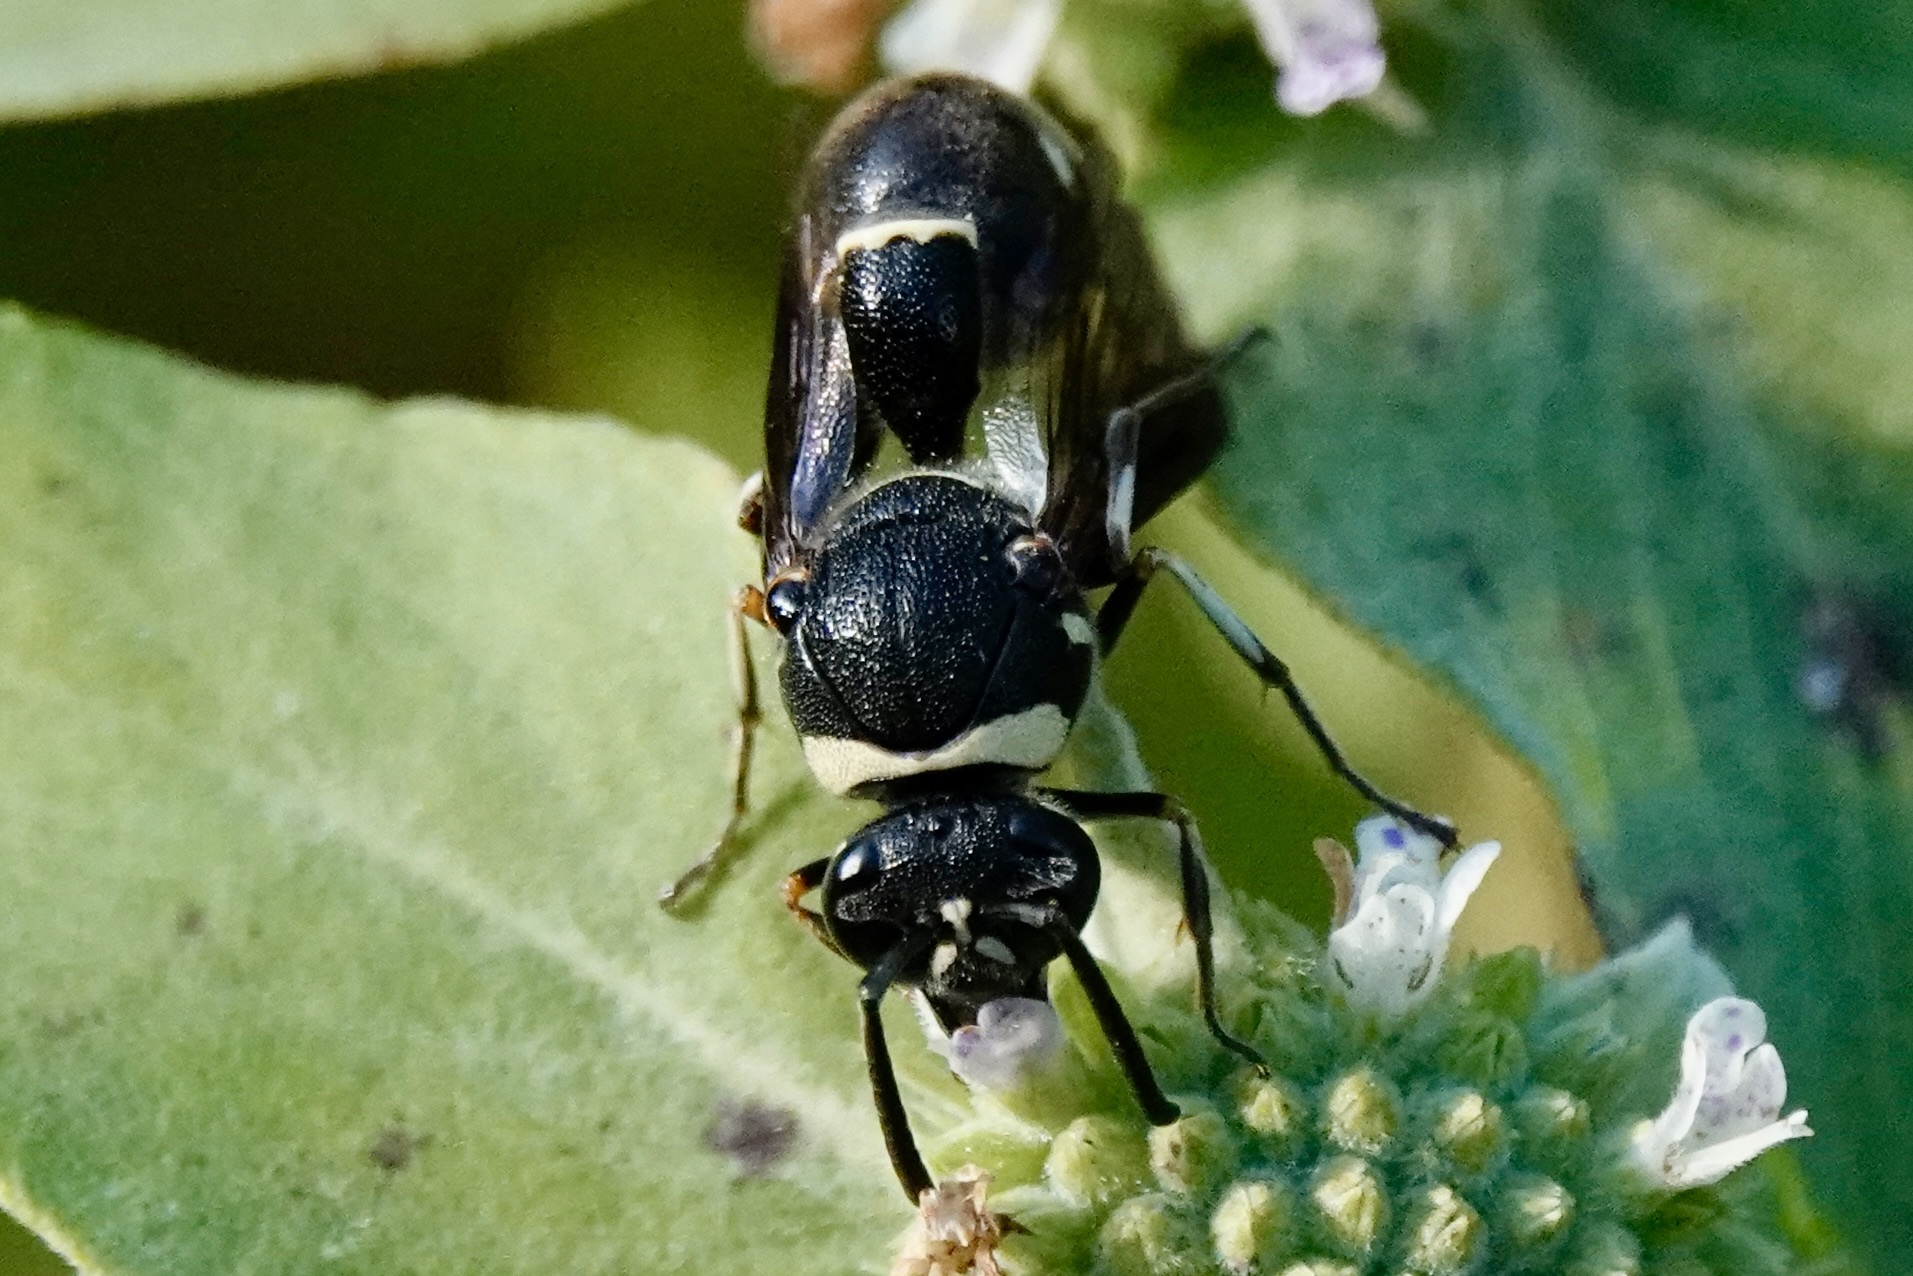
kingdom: Animalia
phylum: Arthropoda
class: Insecta
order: Hymenoptera
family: Vespidae
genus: Eumenes
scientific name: Eumenes fraternus
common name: Fraternal potter wasp
